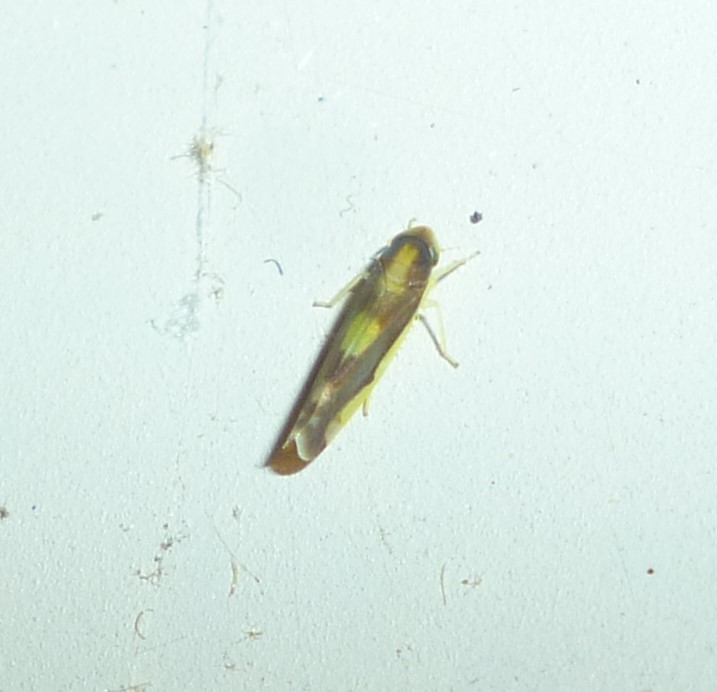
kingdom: Animalia
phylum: Arthropoda
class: Insecta
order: Hemiptera
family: Cicadellidae
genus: Eupteryx
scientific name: Eupteryx flavoscuta
